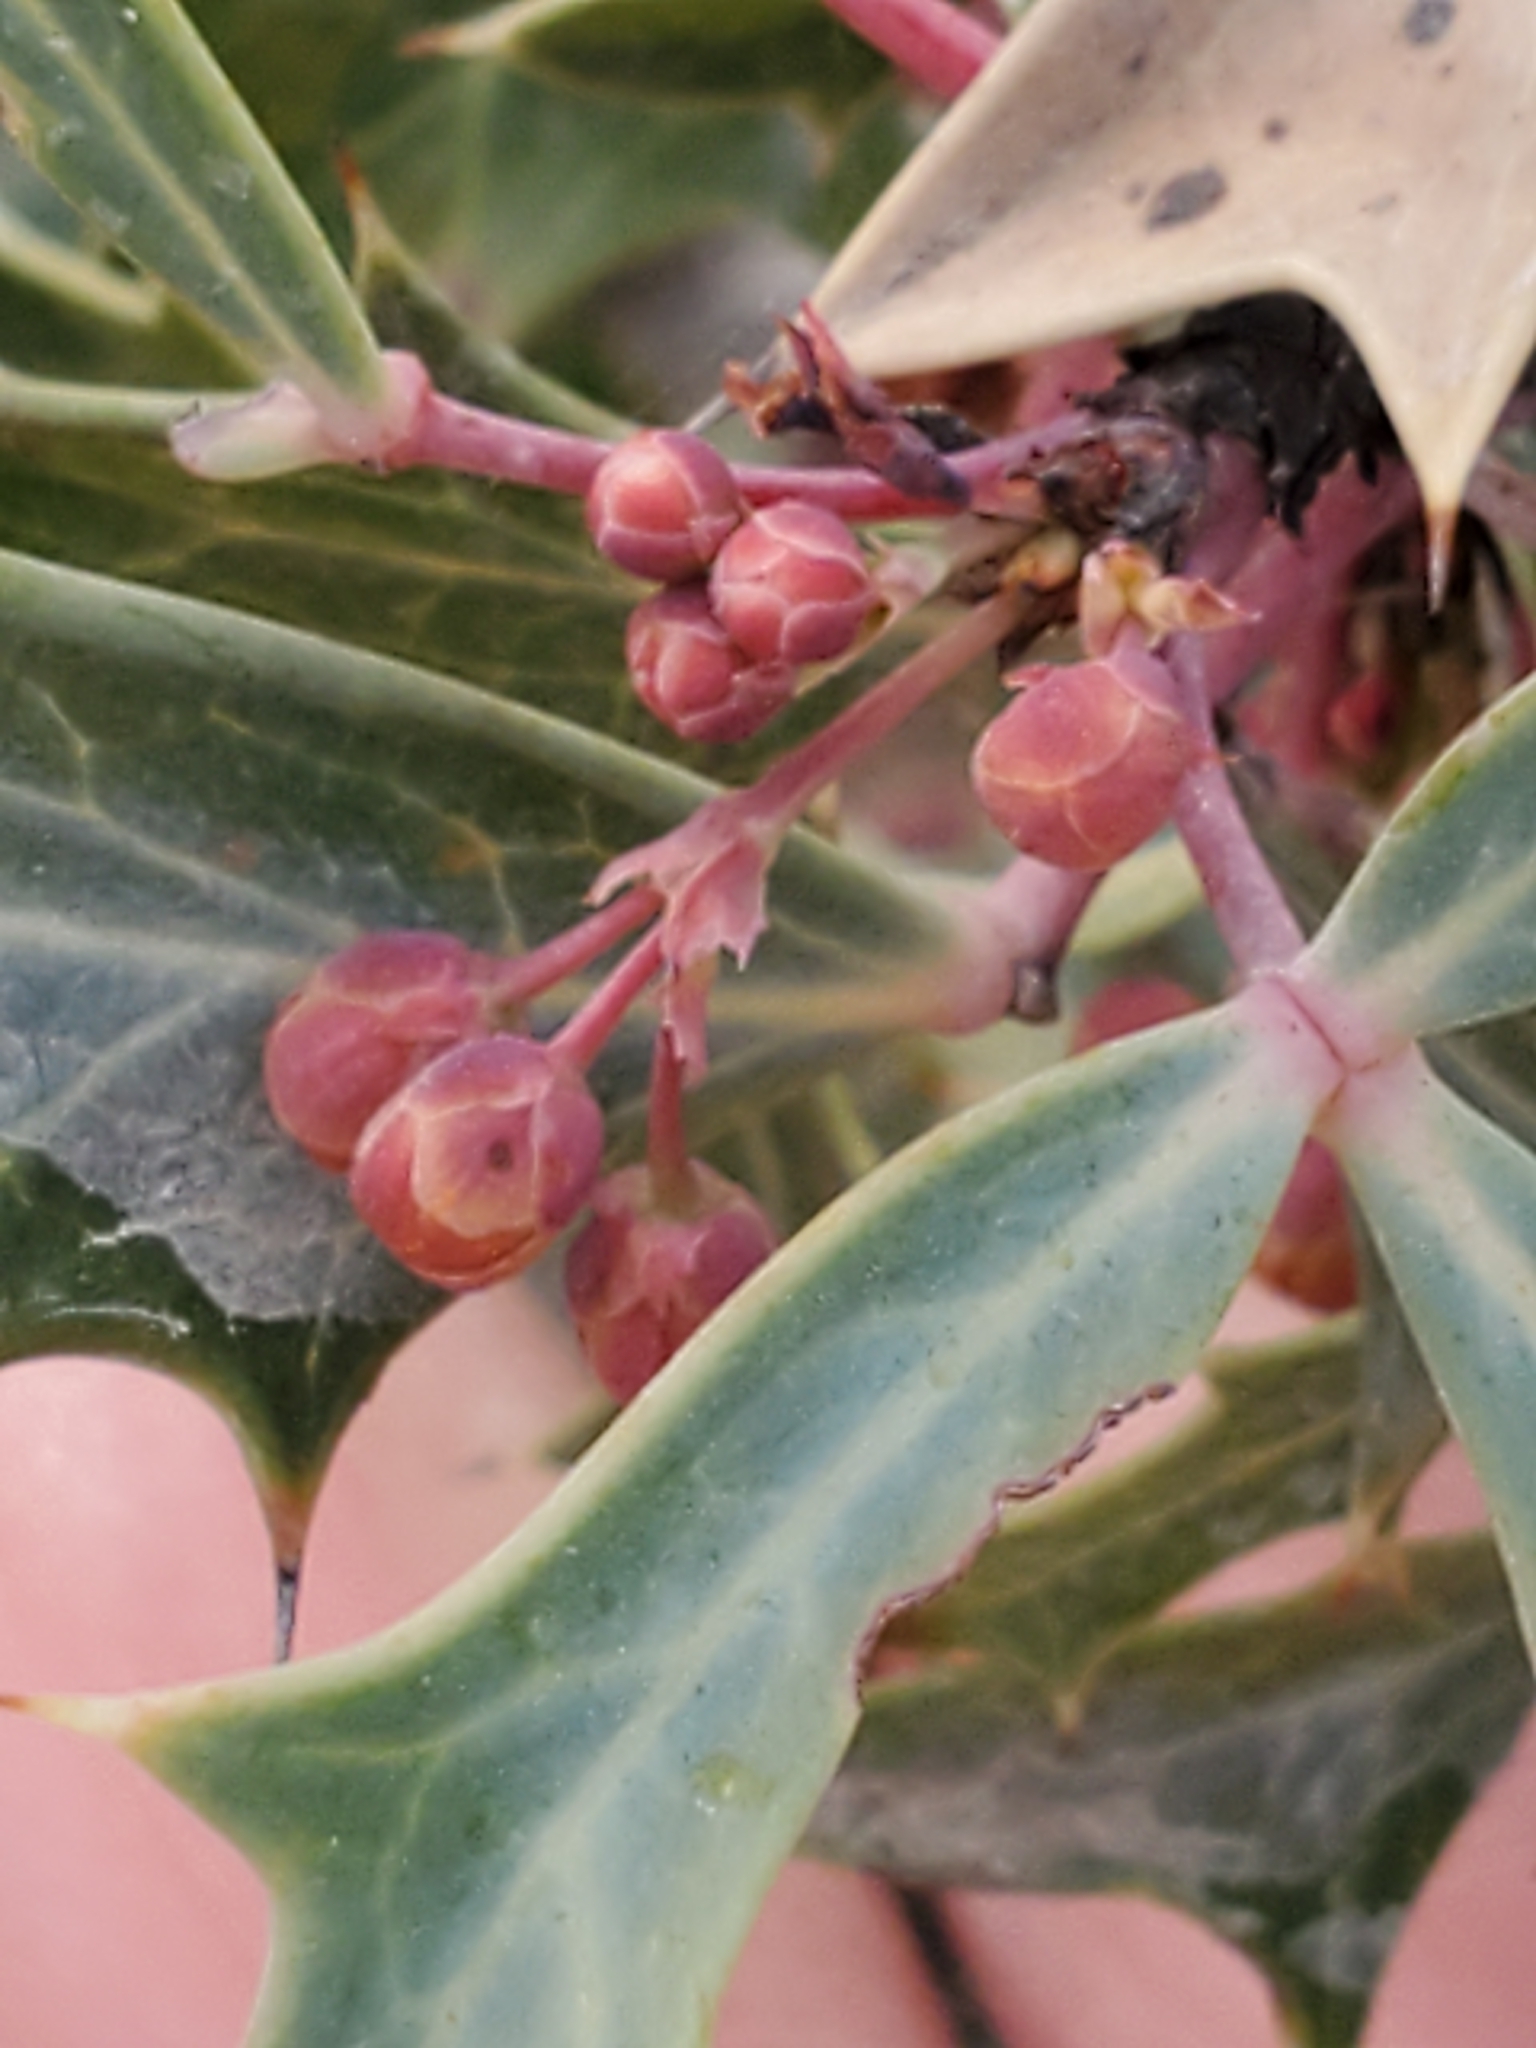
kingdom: Plantae
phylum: Tracheophyta
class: Magnoliopsida
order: Ranunculales
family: Berberidaceae
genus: Alloberberis
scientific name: Alloberberis trifoliolata
